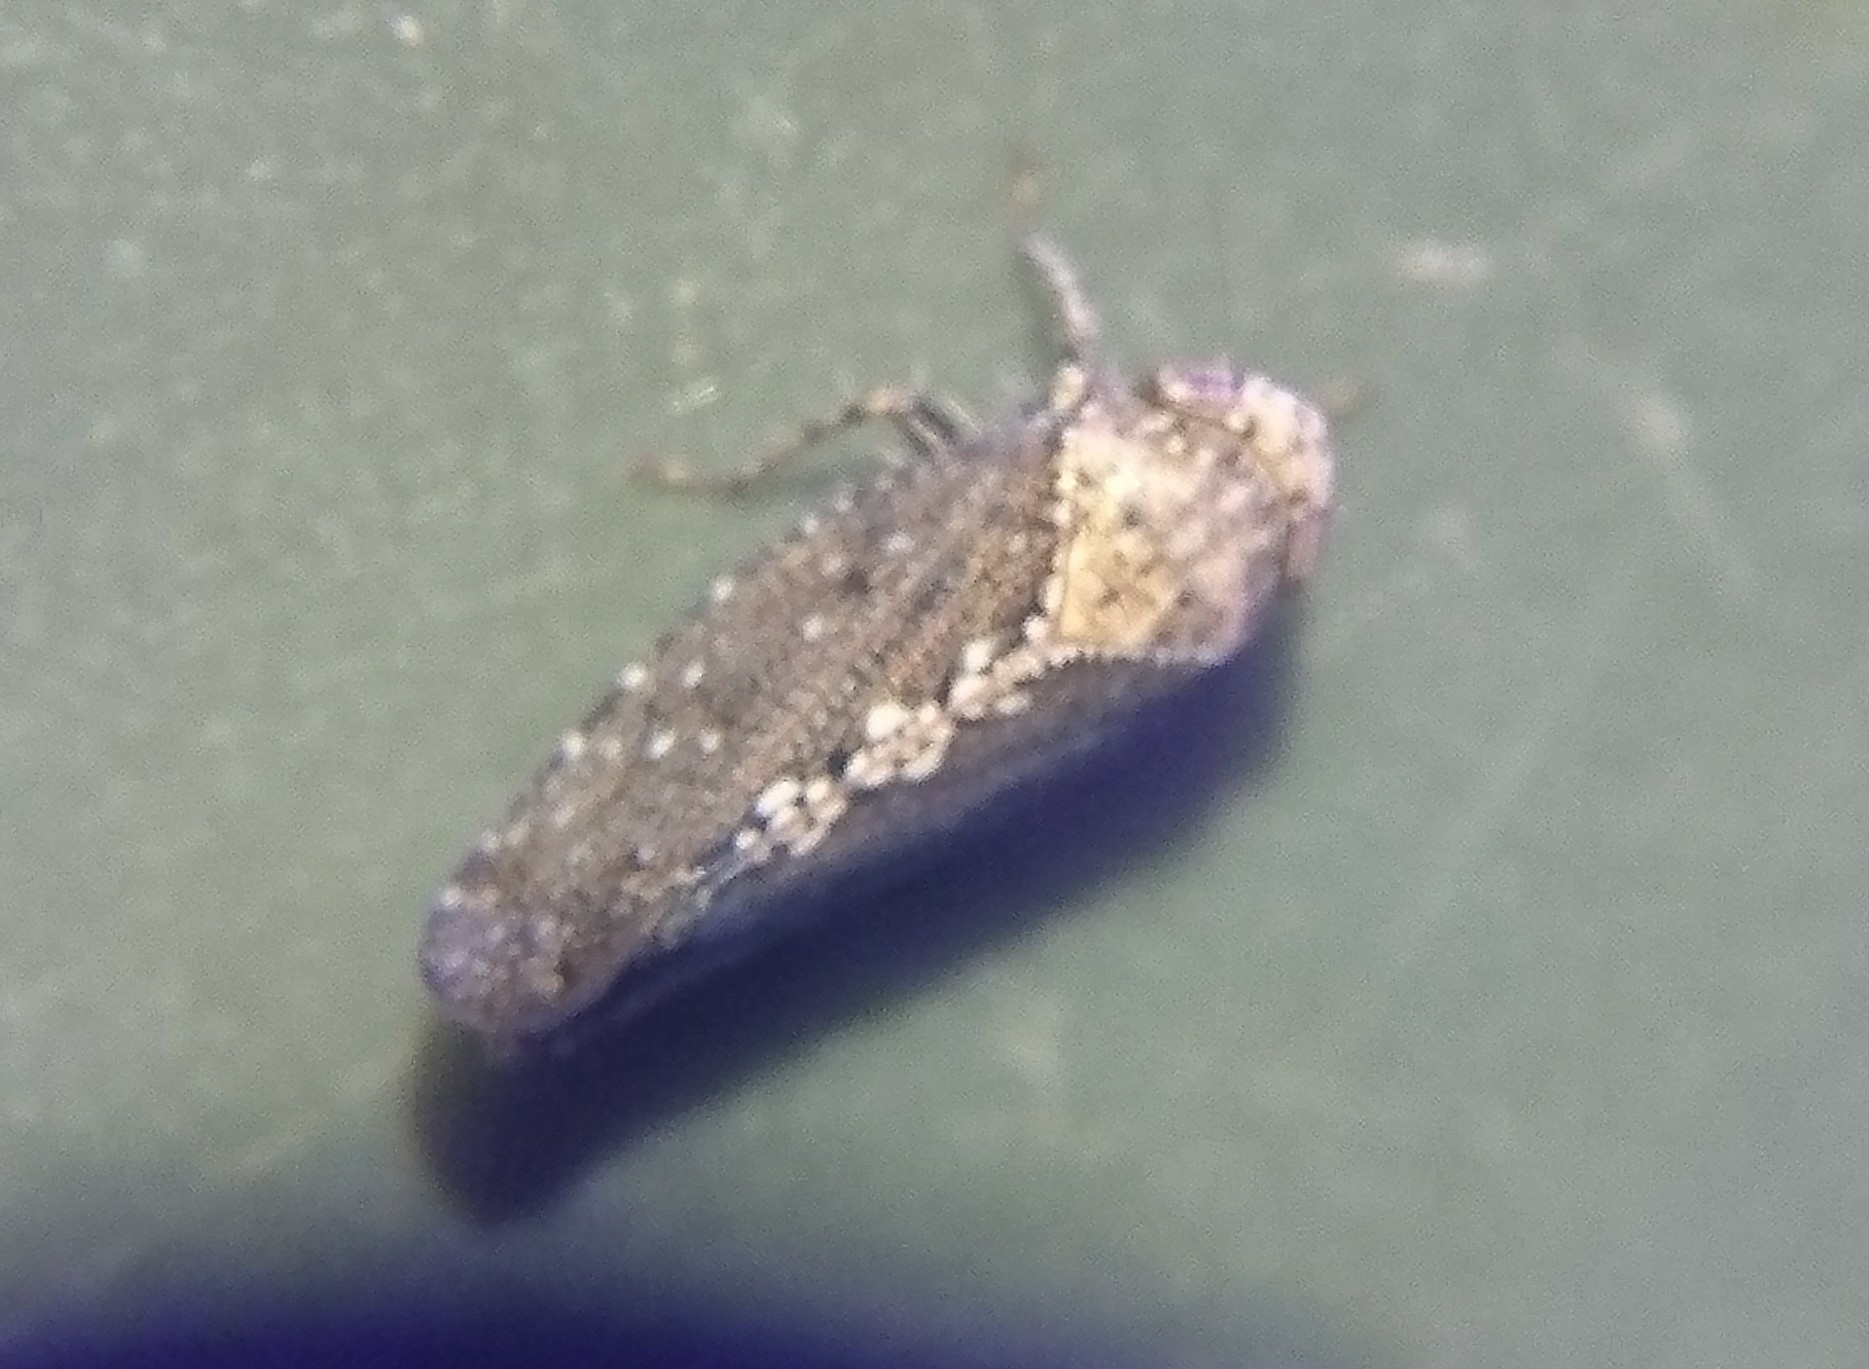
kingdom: Animalia
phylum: Arthropoda
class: Insecta
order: Hemiptera
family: Cicadellidae
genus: Excultanus
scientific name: Excultanus excultus
